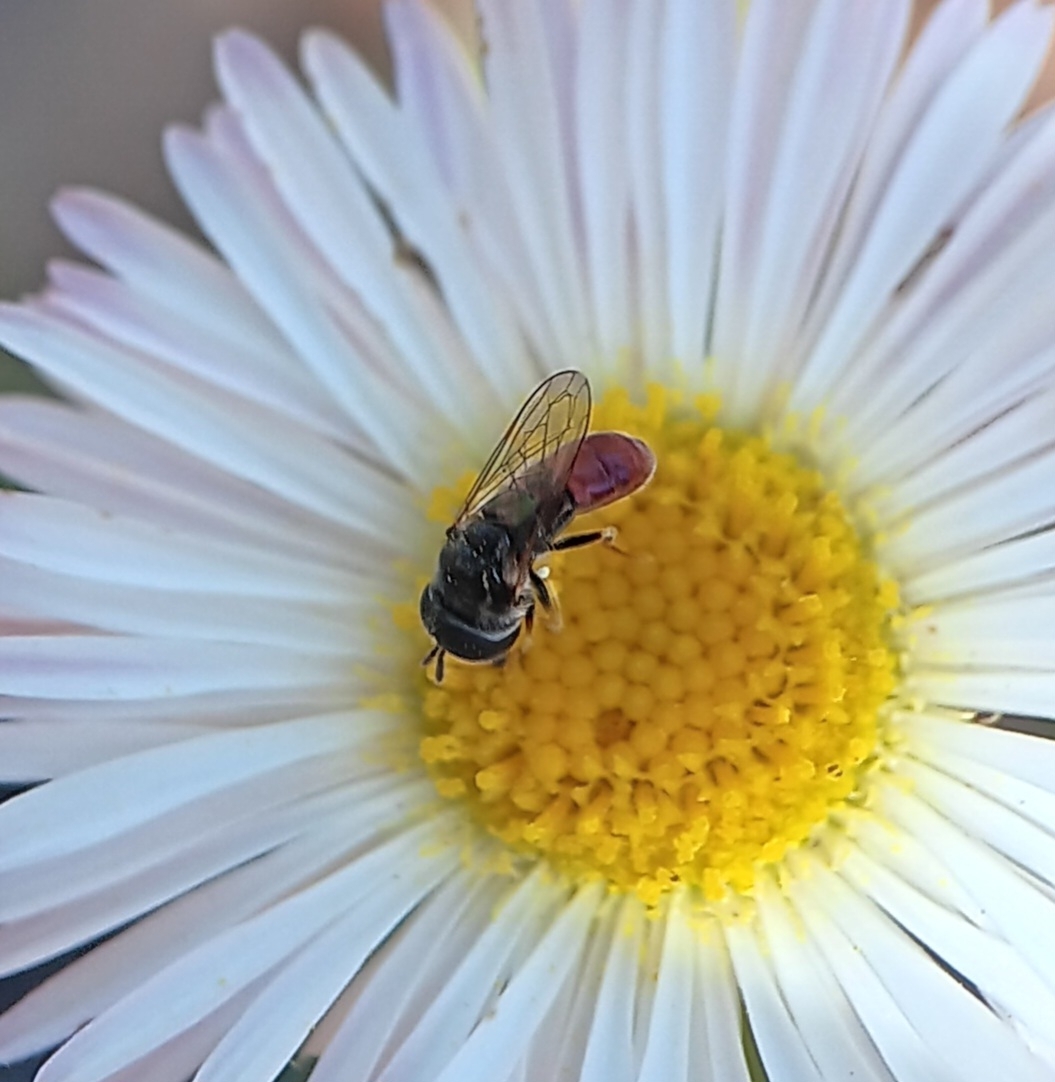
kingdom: Animalia
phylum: Arthropoda
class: Insecta
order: Diptera
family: Syrphidae
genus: Paragus
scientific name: Paragus haemorrhous
